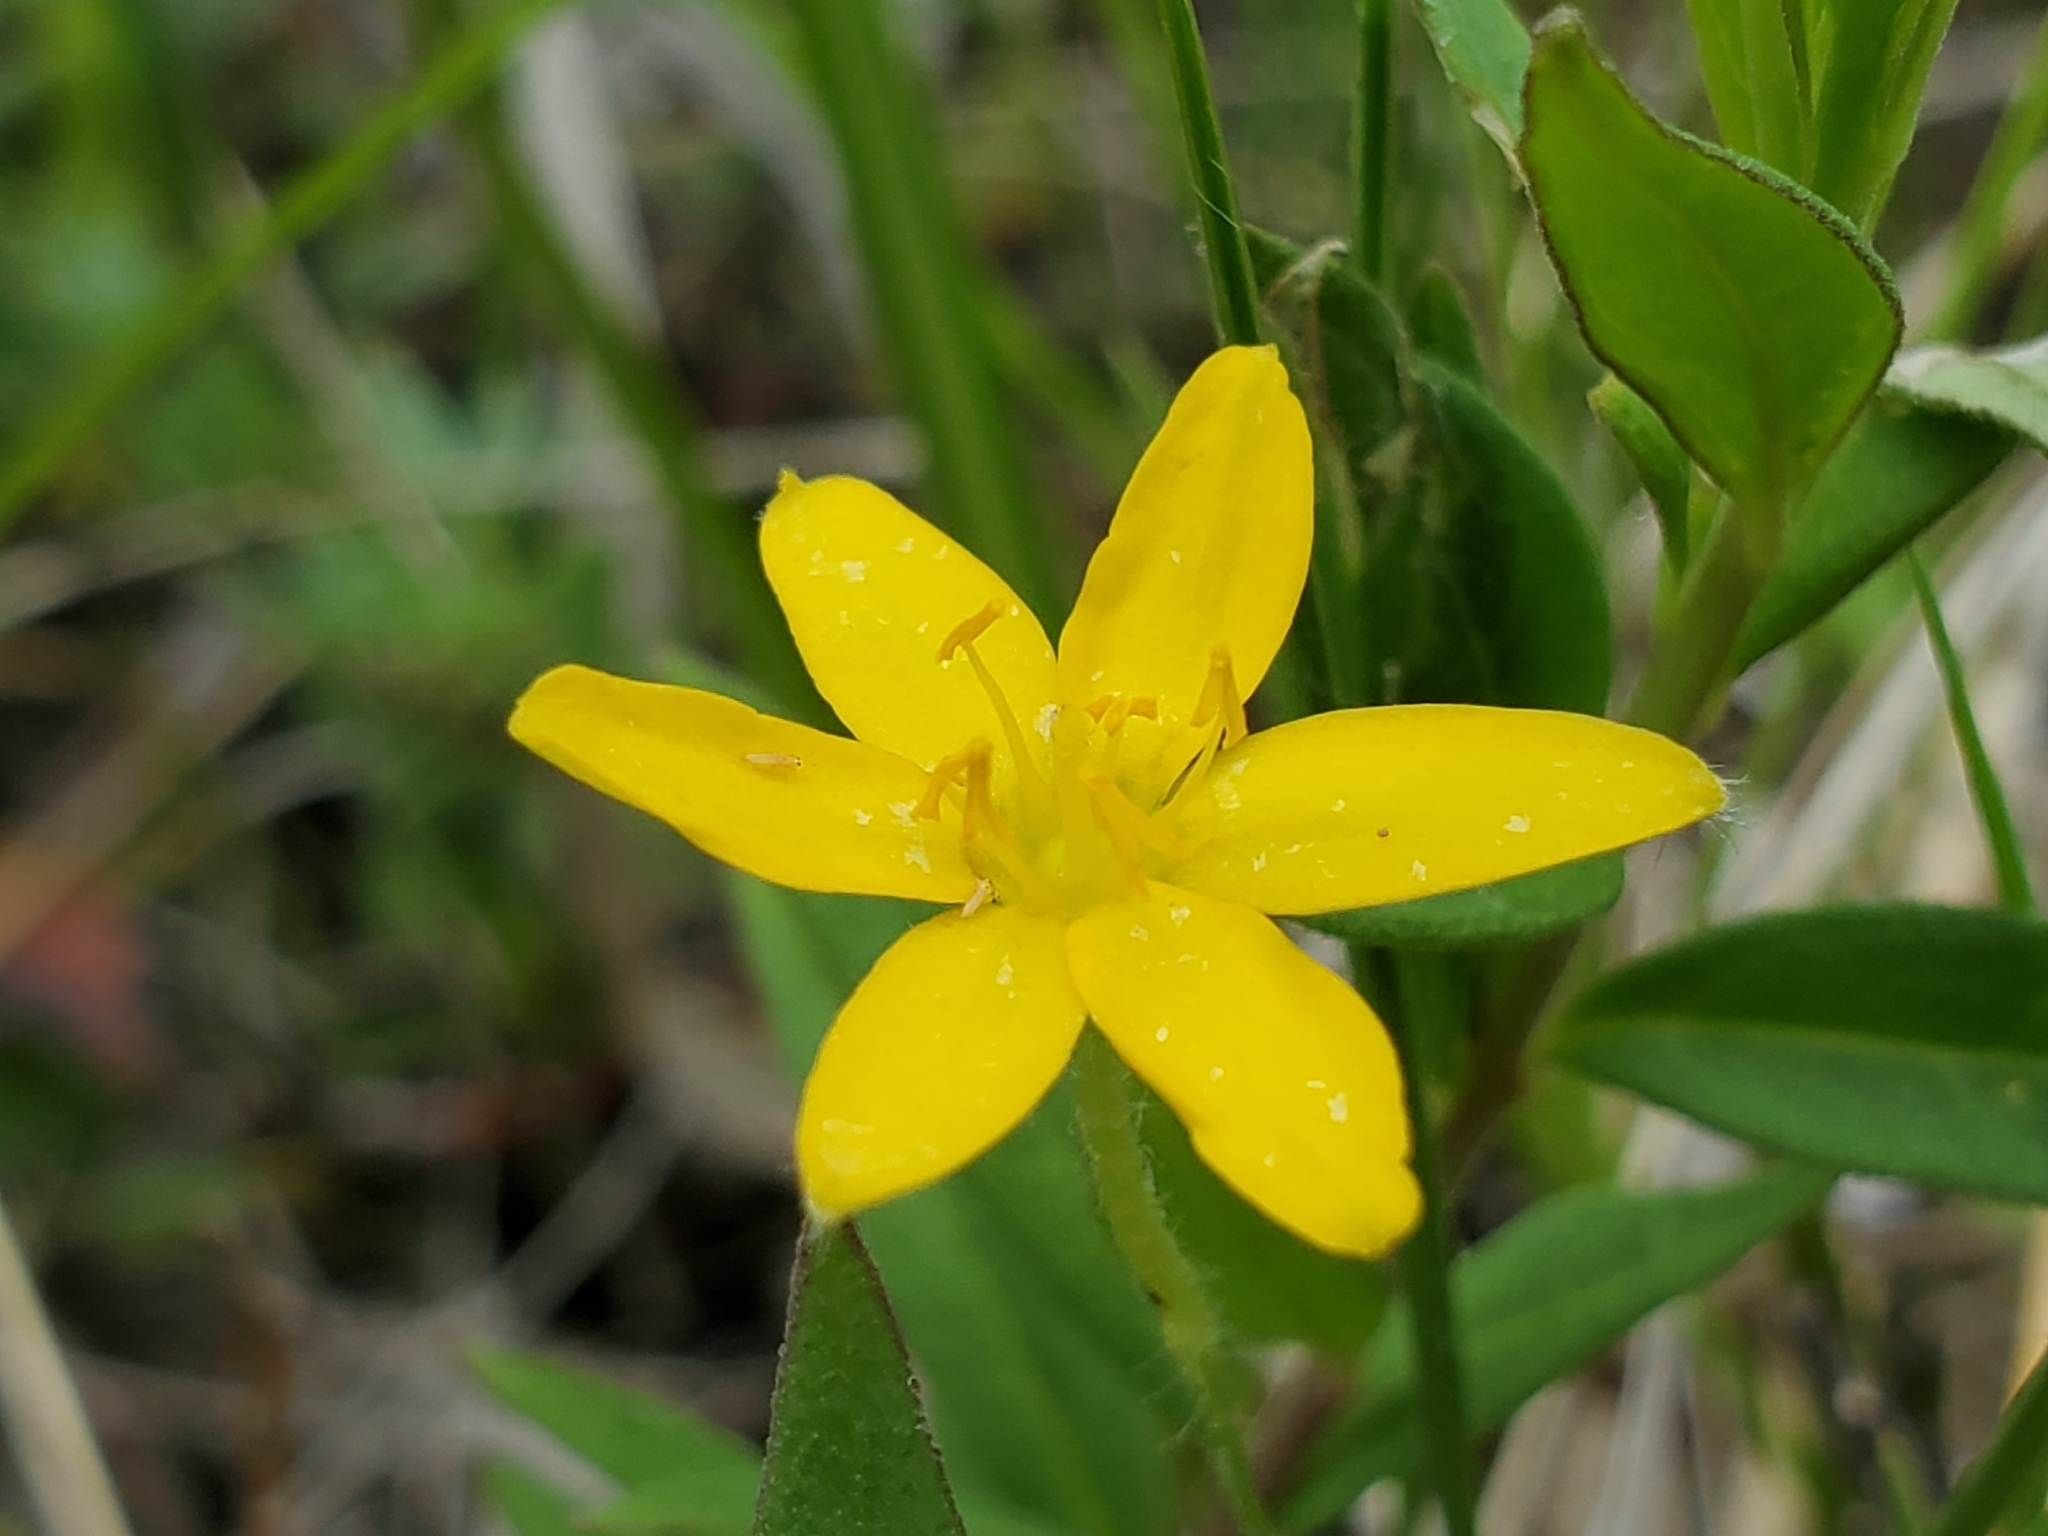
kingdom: Plantae
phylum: Tracheophyta
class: Liliopsida
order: Asparagales
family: Hypoxidaceae
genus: Hypoxis
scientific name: Hypoxis hirsuta
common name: Common goldstar
